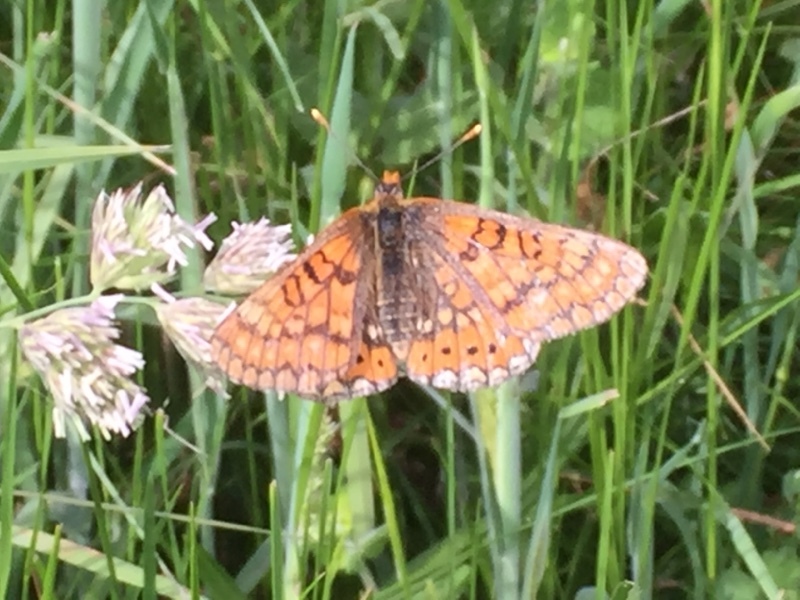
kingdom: Animalia
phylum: Arthropoda
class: Insecta
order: Lepidoptera
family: Nymphalidae
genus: Euphydryas
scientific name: Euphydryas aurinia
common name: Marsh fritillary
